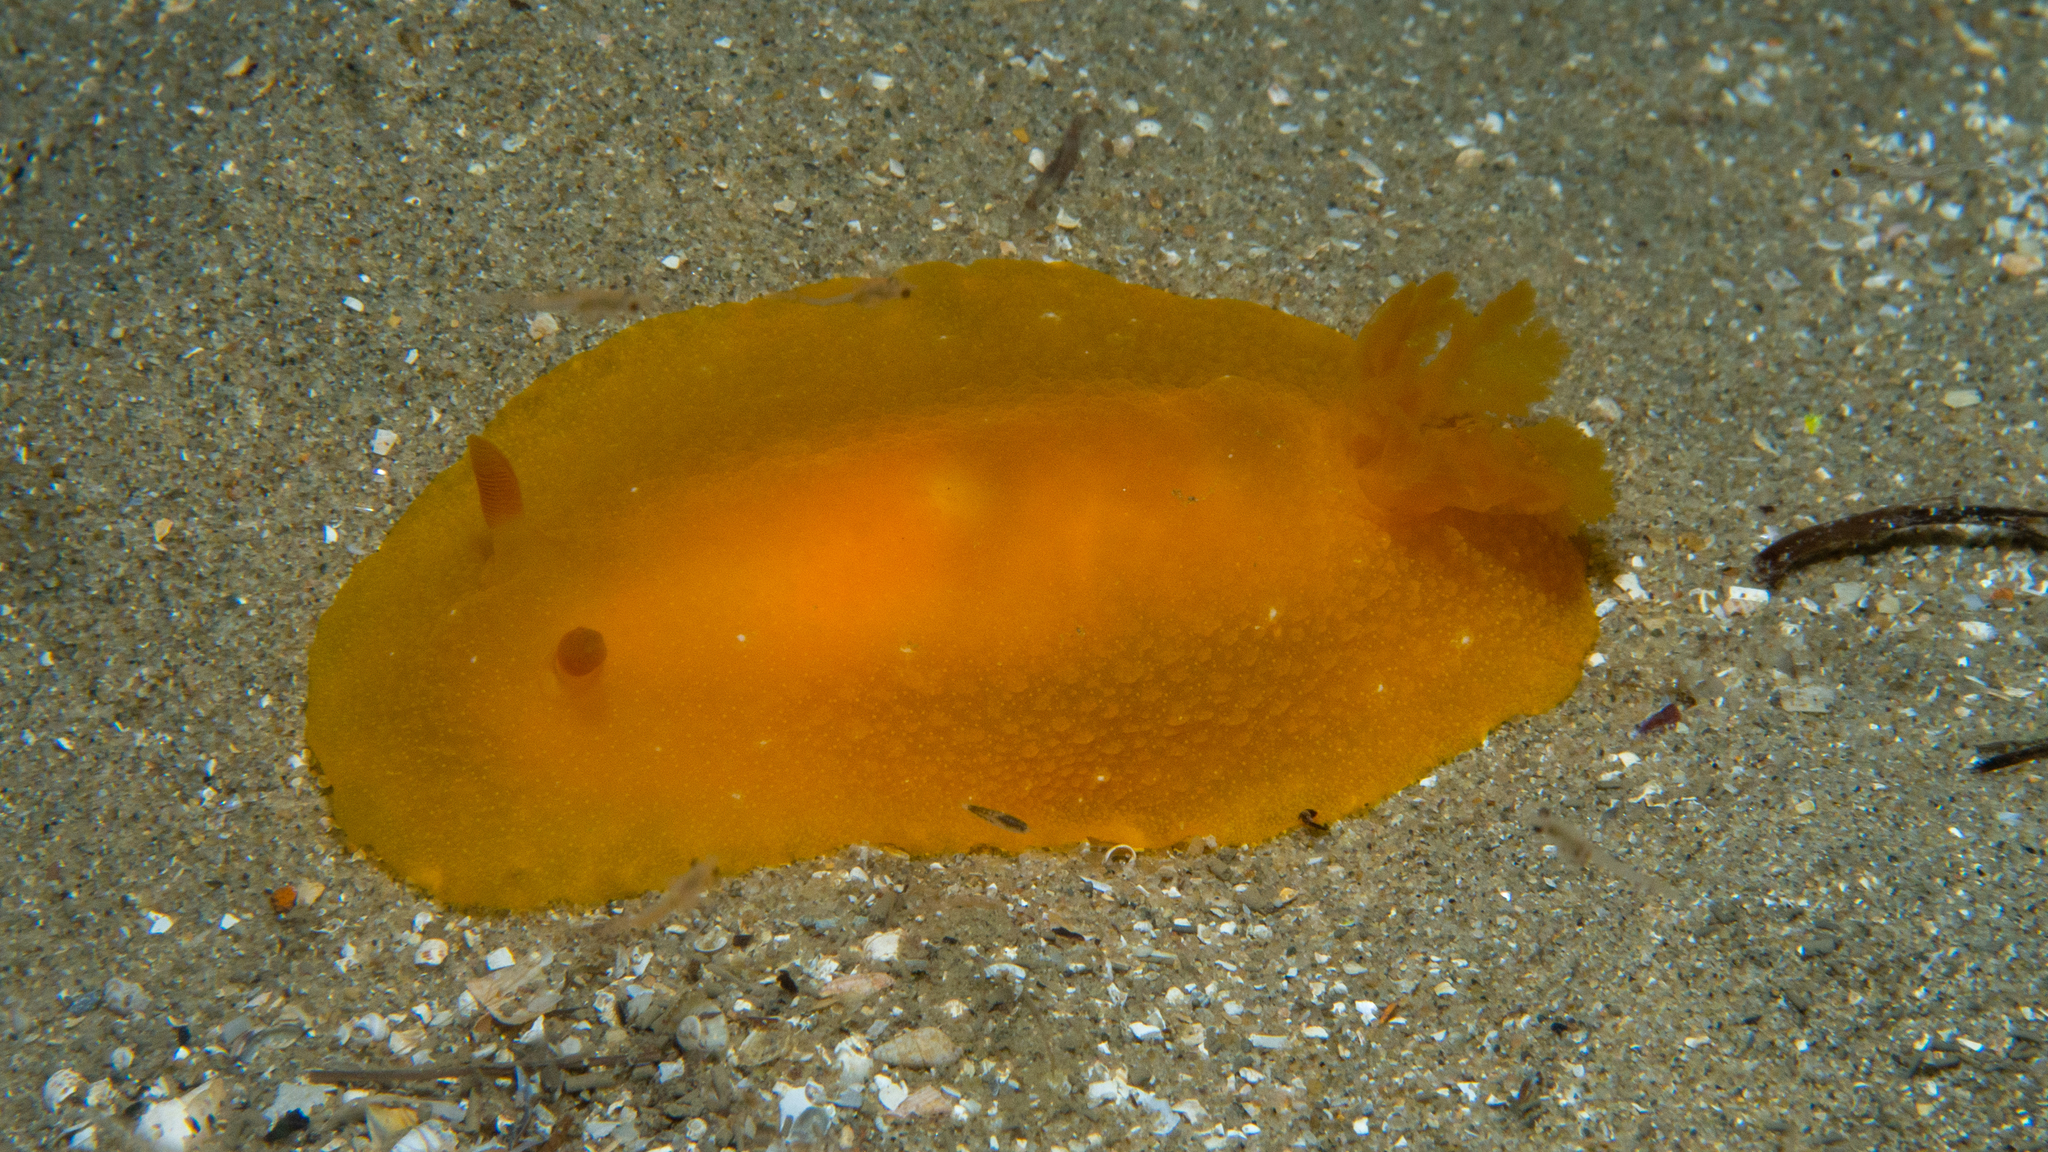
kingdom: Animalia
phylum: Mollusca
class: Gastropoda
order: Nudibranchia
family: Dendrodorididae
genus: Doriopsilla
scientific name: Doriopsilla carneola
